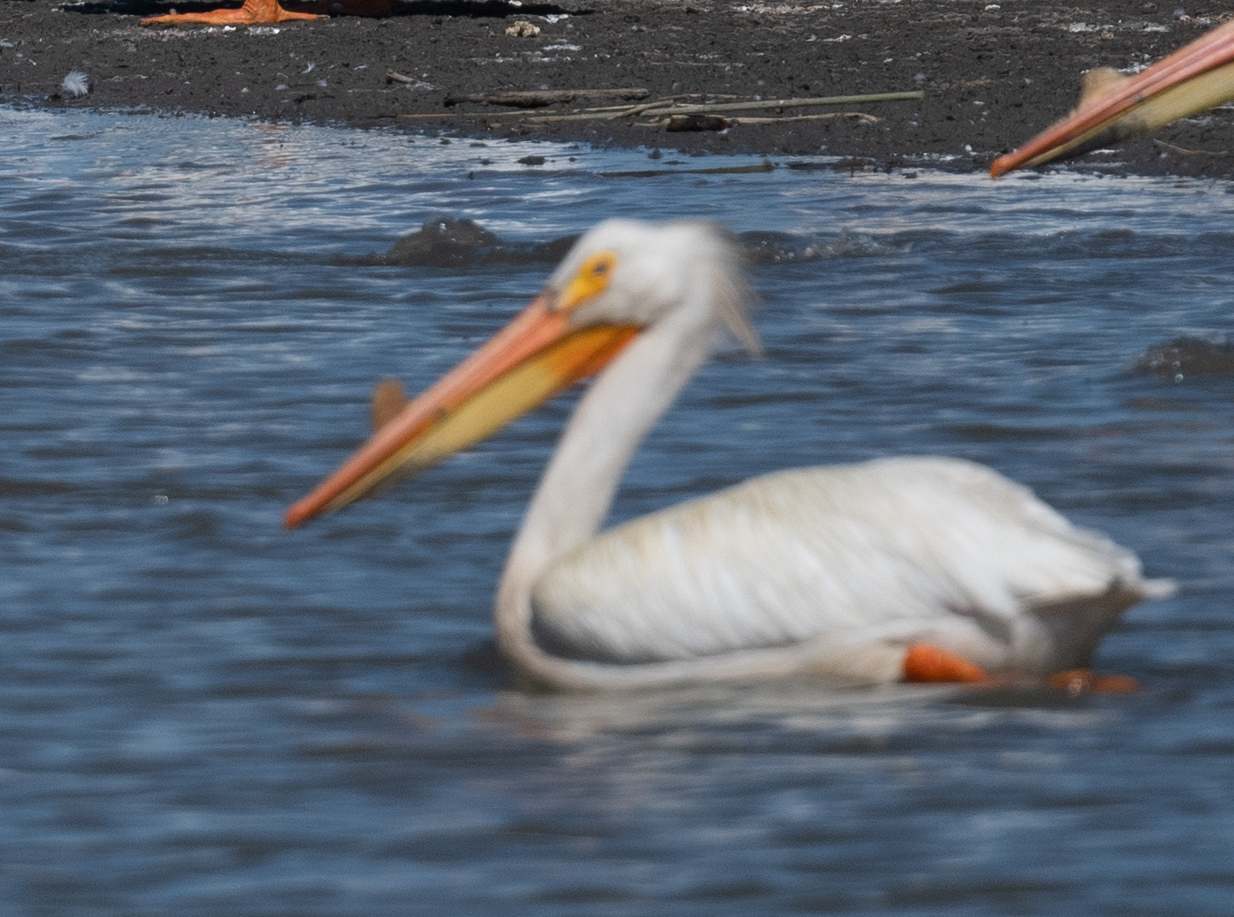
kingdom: Animalia
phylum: Chordata
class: Aves
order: Pelecaniformes
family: Pelecanidae
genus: Pelecanus
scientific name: Pelecanus erythrorhynchos
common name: American white pelican
